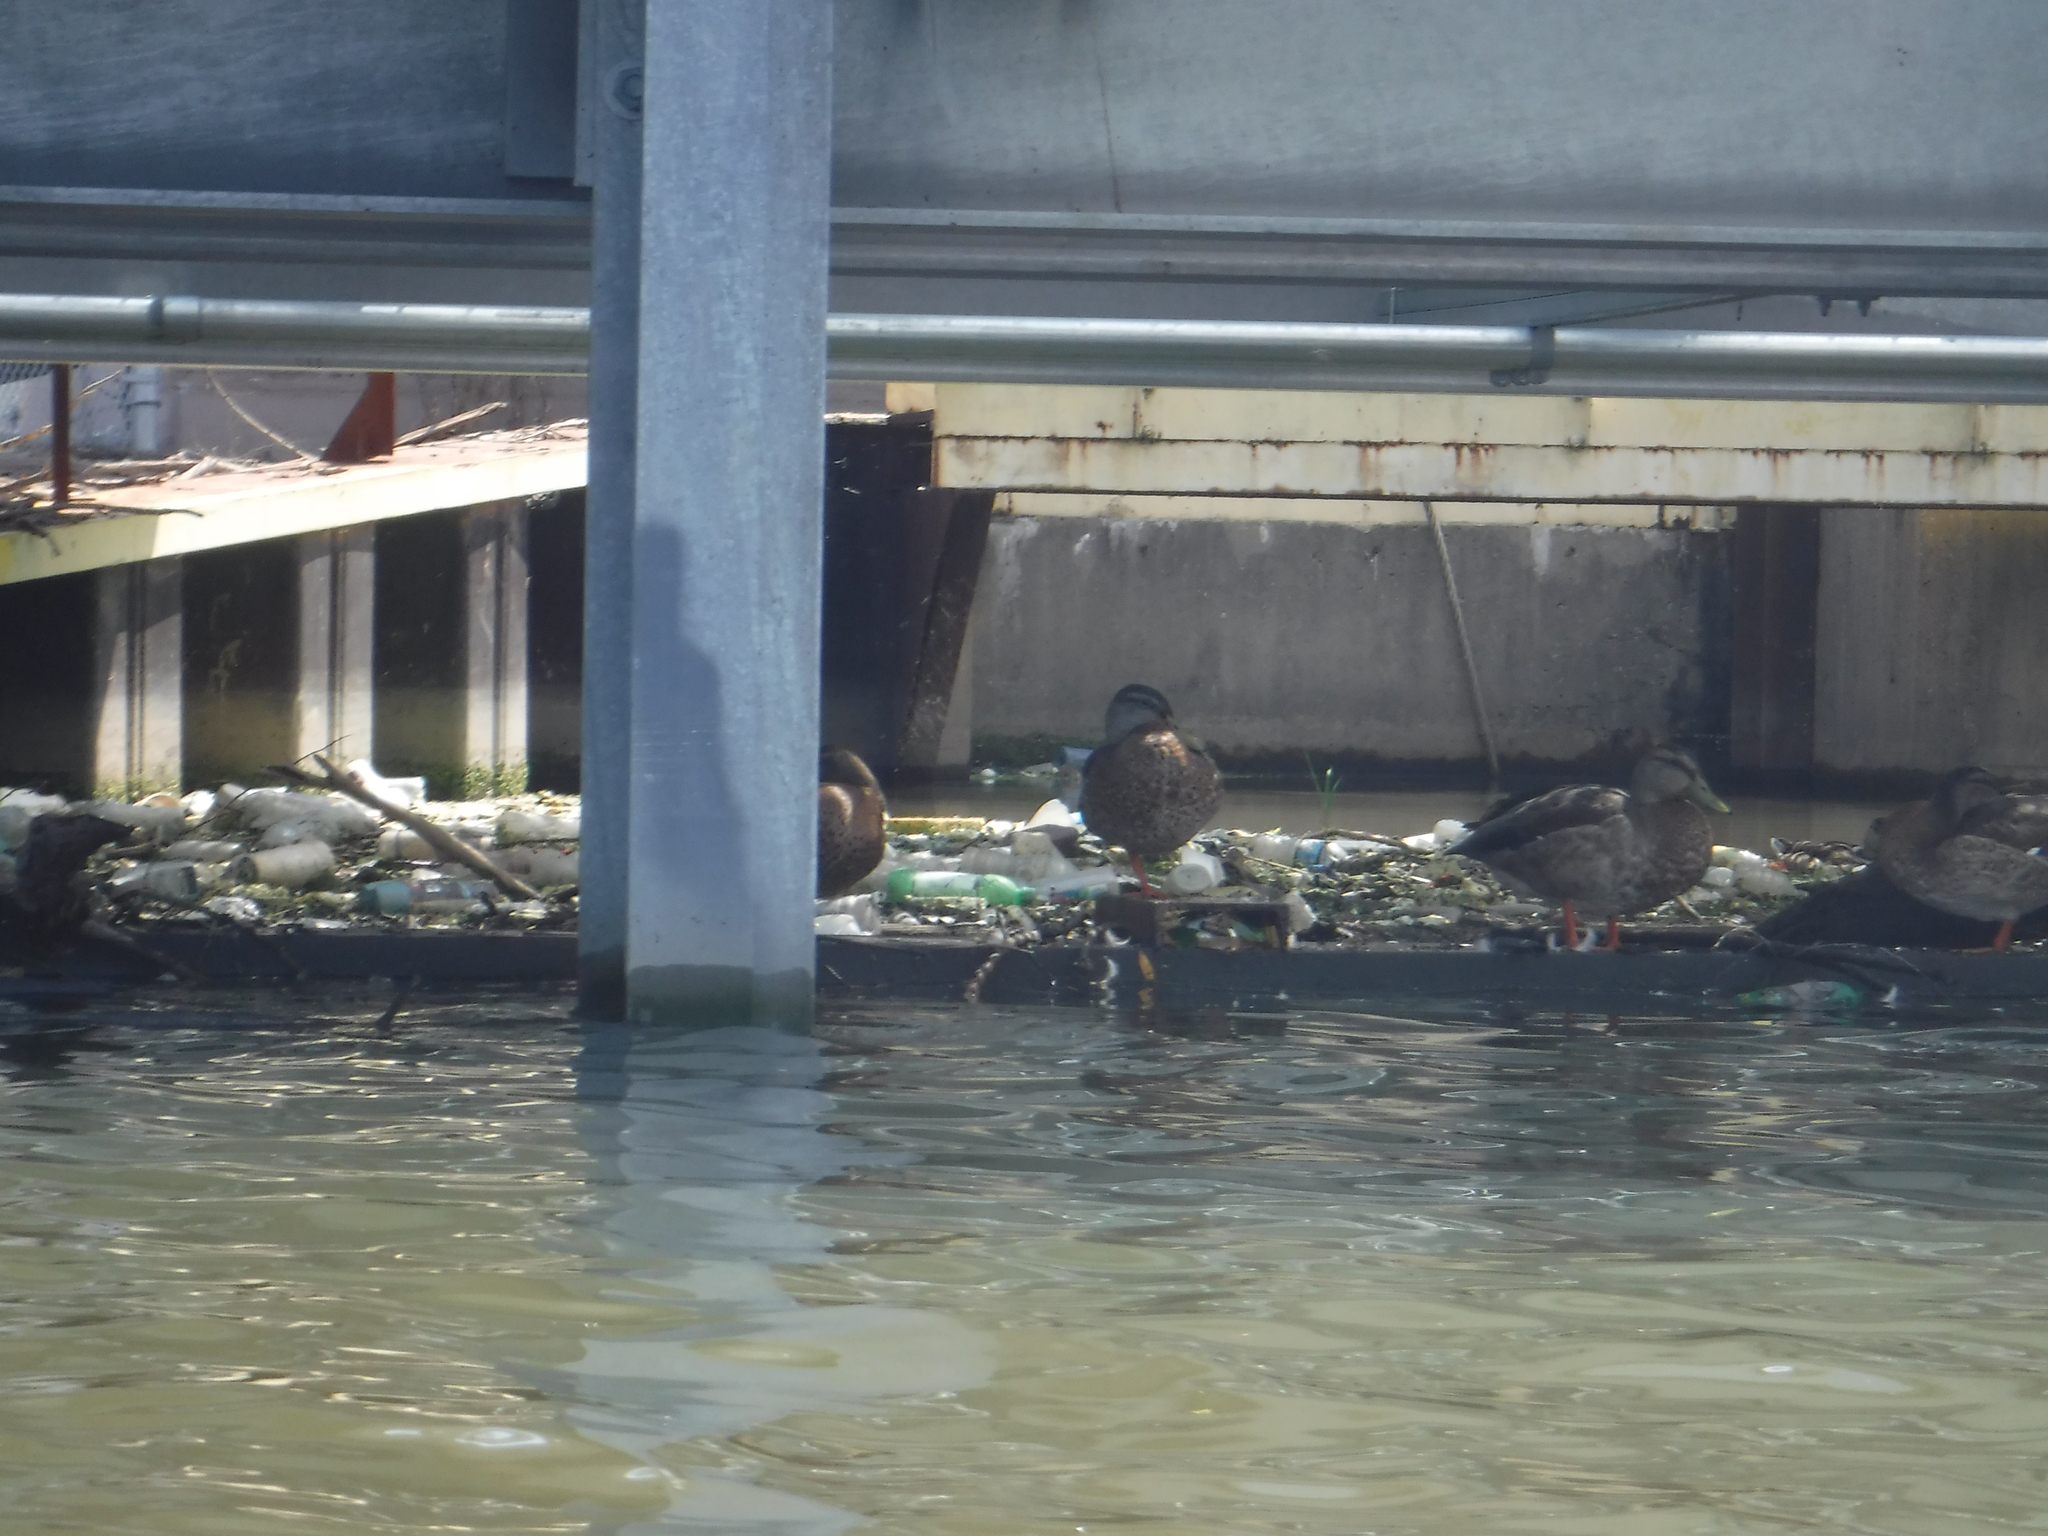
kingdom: Animalia
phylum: Chordata
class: Aves
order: Anseriformes
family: Anatidae
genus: Anas
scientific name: Anas platyrhynchos
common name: Mallard
